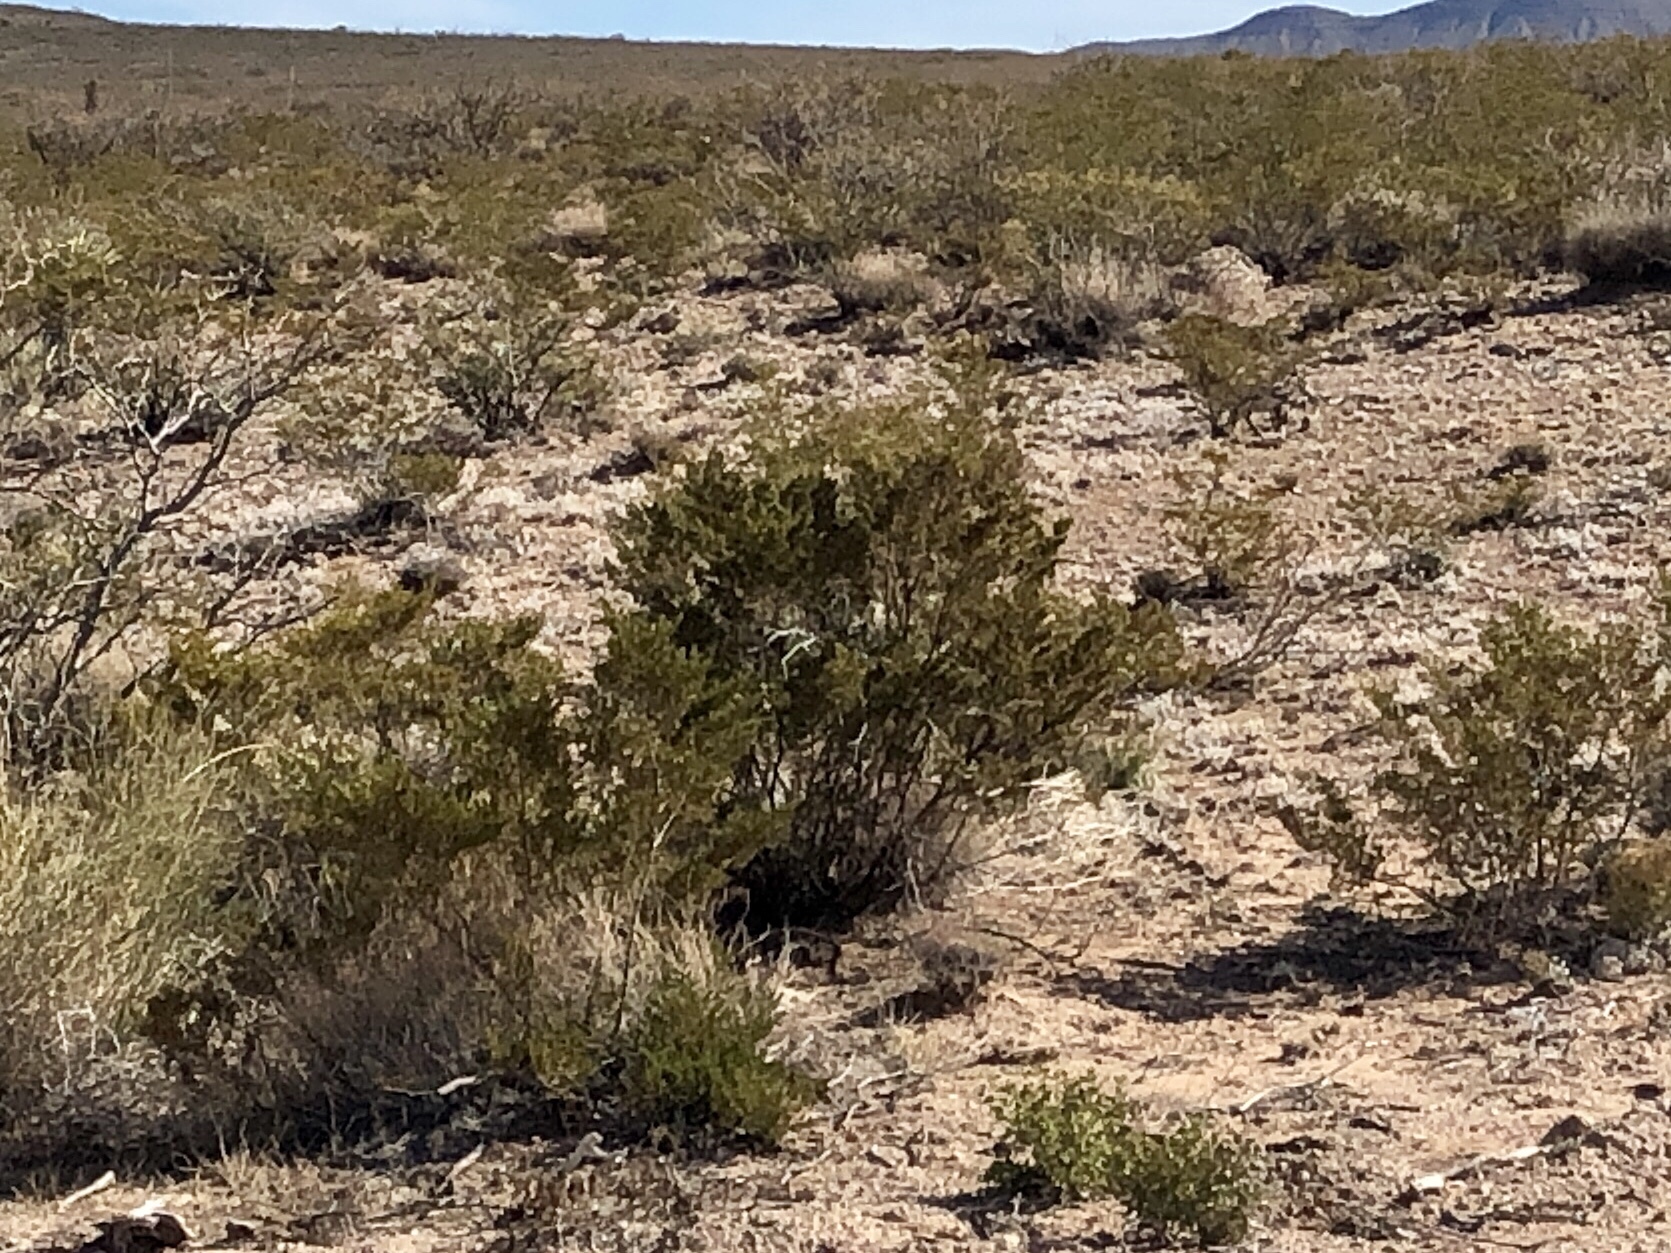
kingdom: Plantae
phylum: Tracheophyta
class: Magnoliopsida
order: Zygophyllales
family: Zygophyllaceae
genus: Larrea
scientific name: Larrea tridentata
